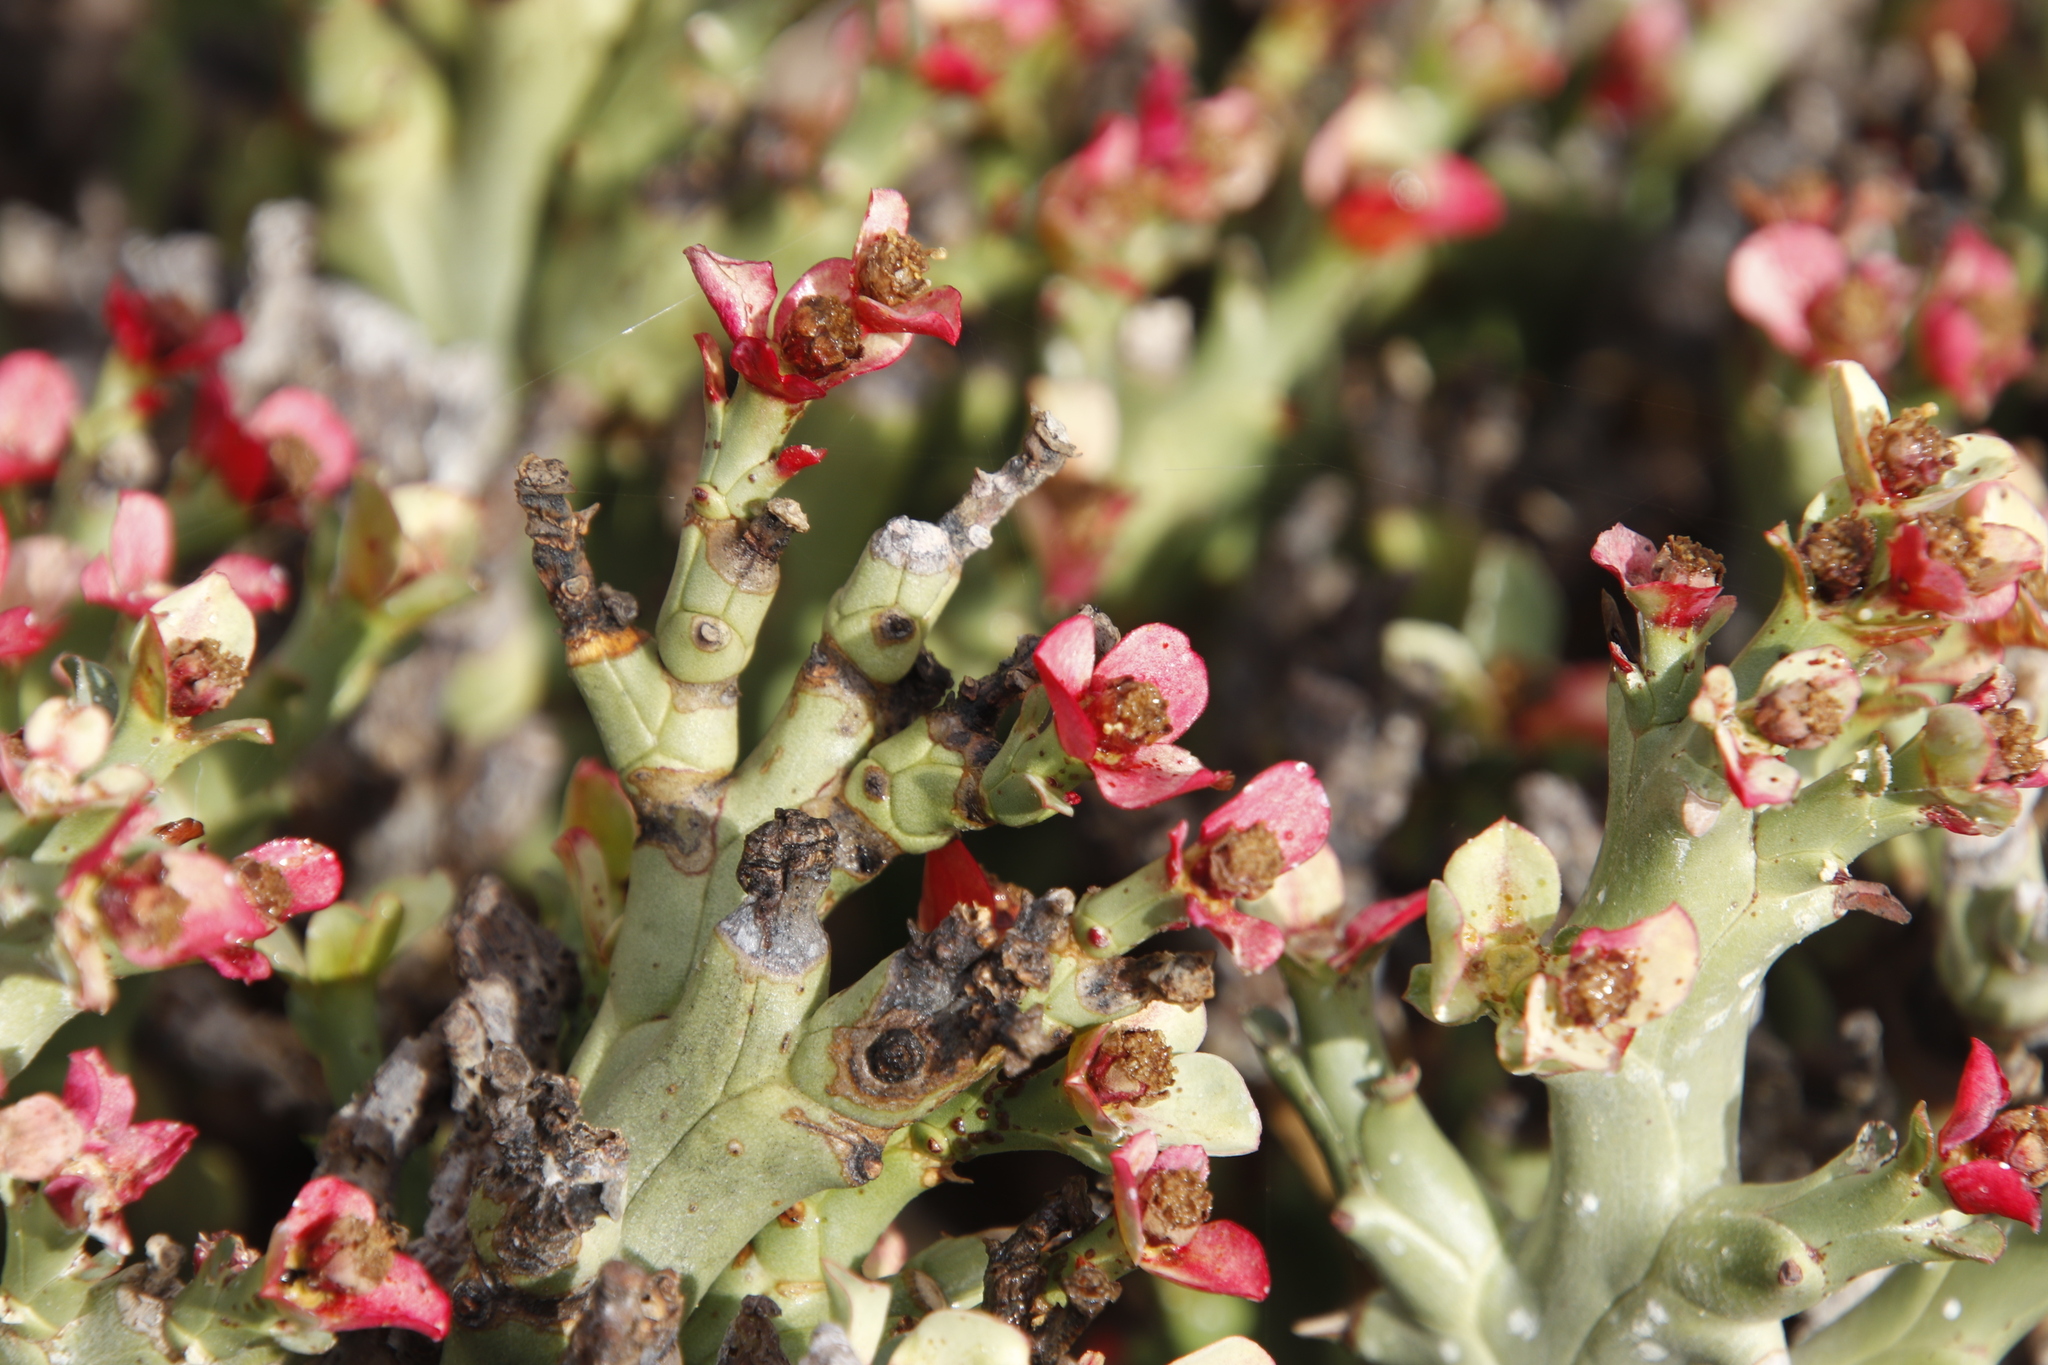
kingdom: Plantae
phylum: Tracheophyta
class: Magnoliopsida
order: Malpighiales
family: Euphorbiaceae
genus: Euphorbia
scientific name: Euphorbia hamata
